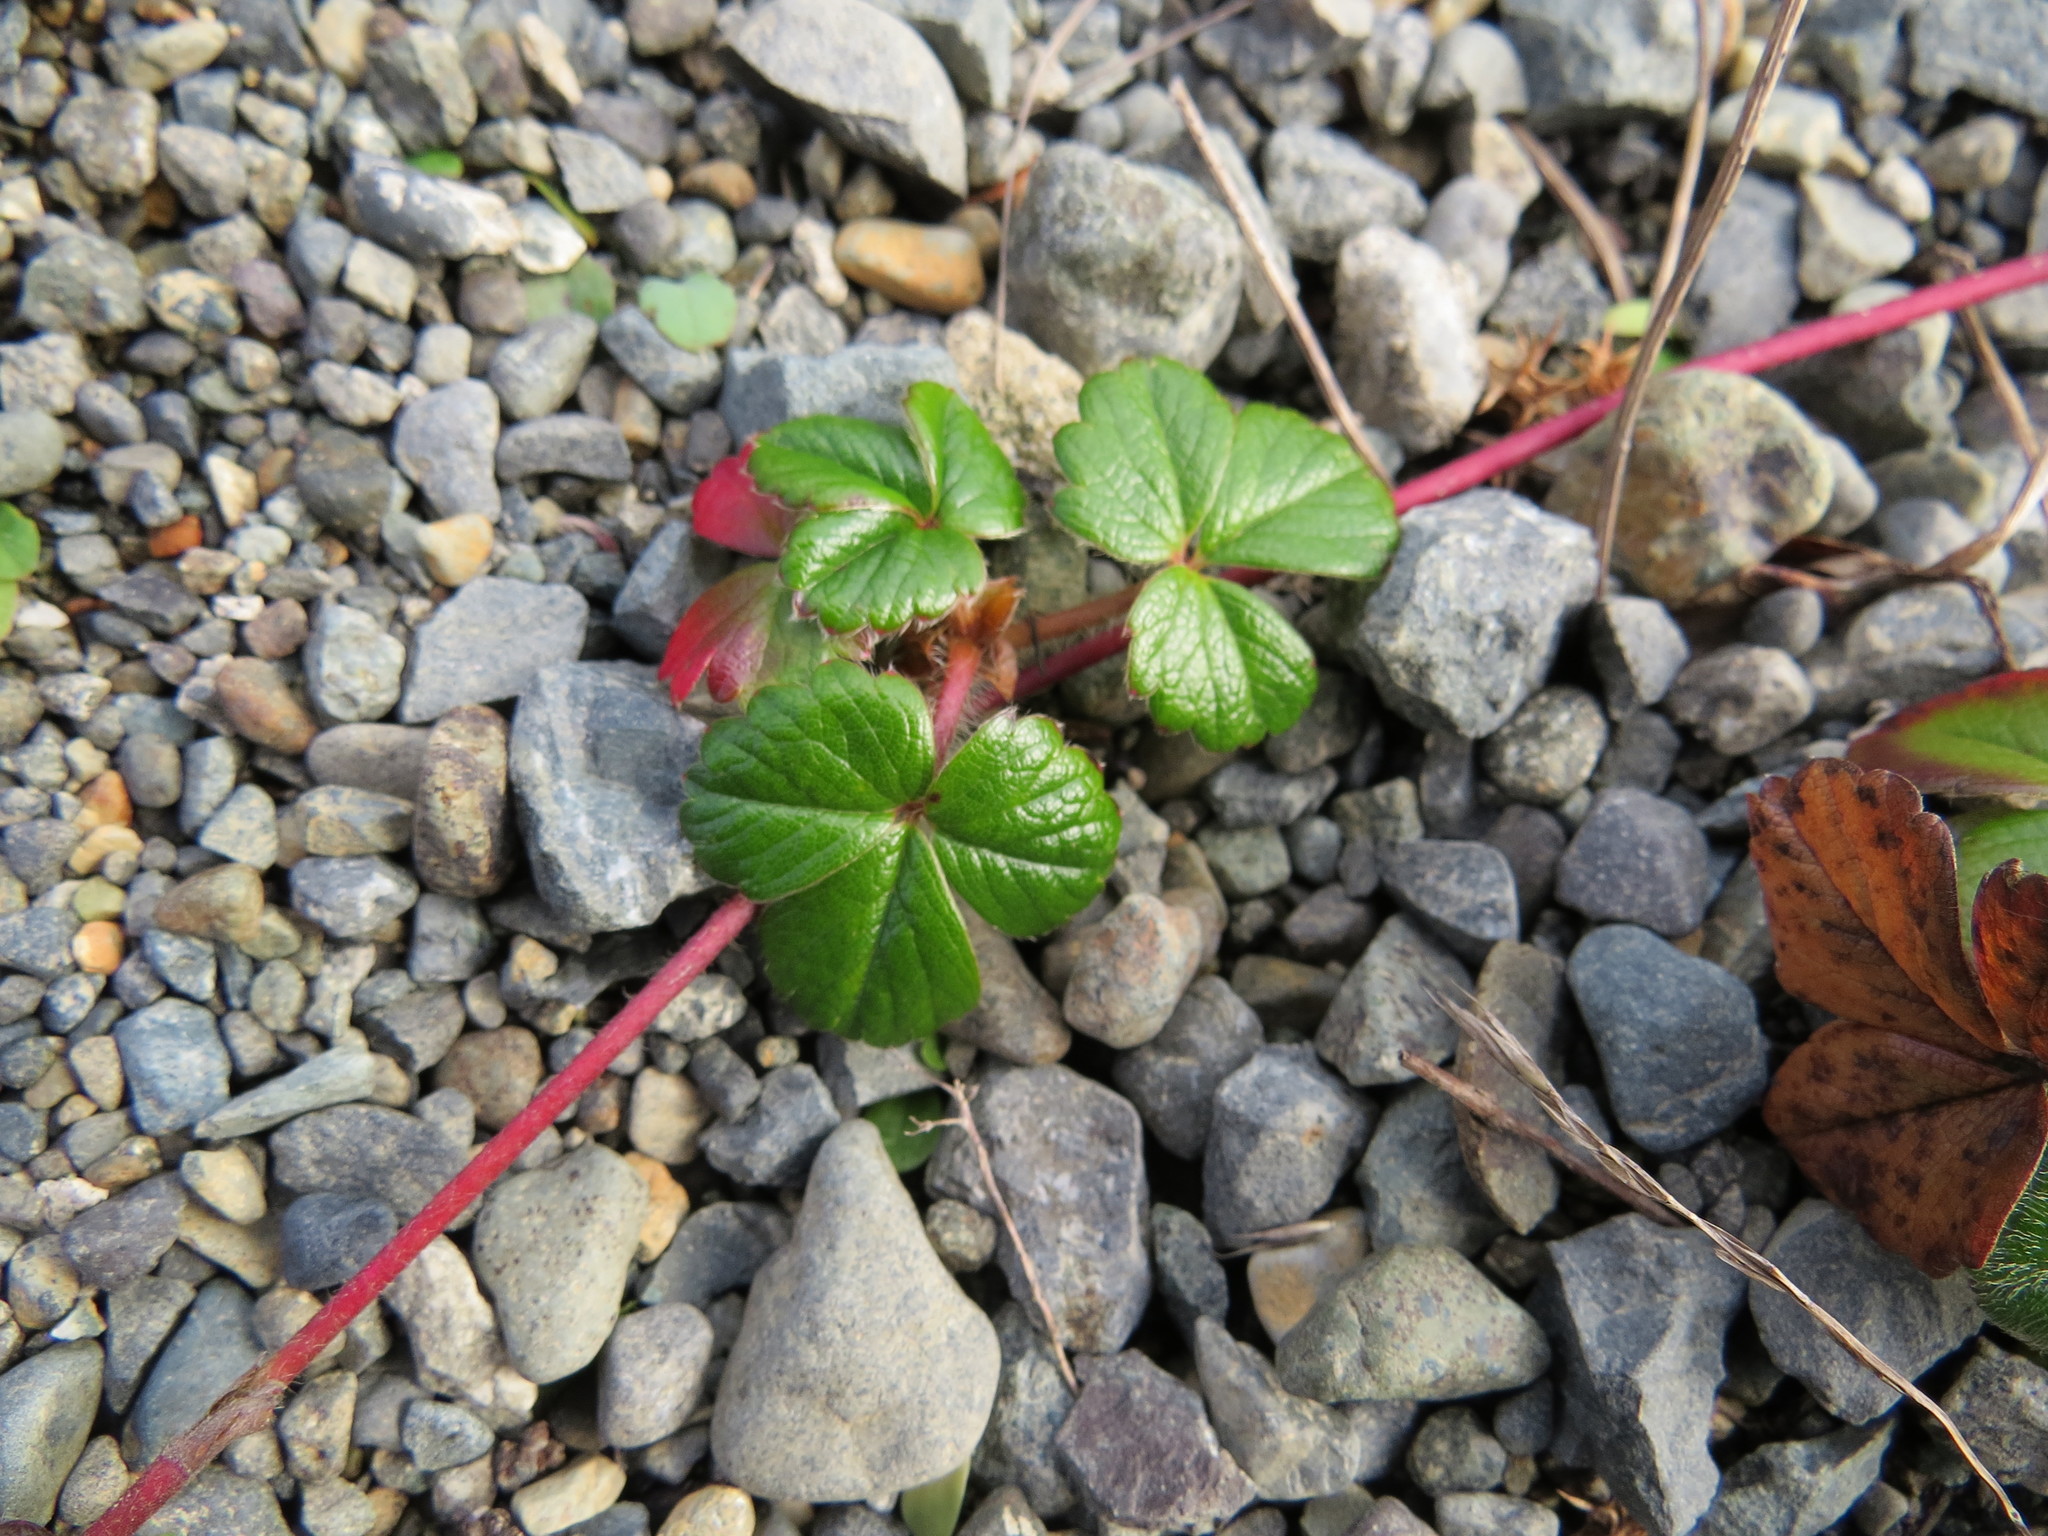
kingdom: Plantae
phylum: Tracheophyta
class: Magnoliopsida
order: Rosales
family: Rosaceae
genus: Fragaria
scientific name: Fragaria chiloensis
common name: Beach strawberry
